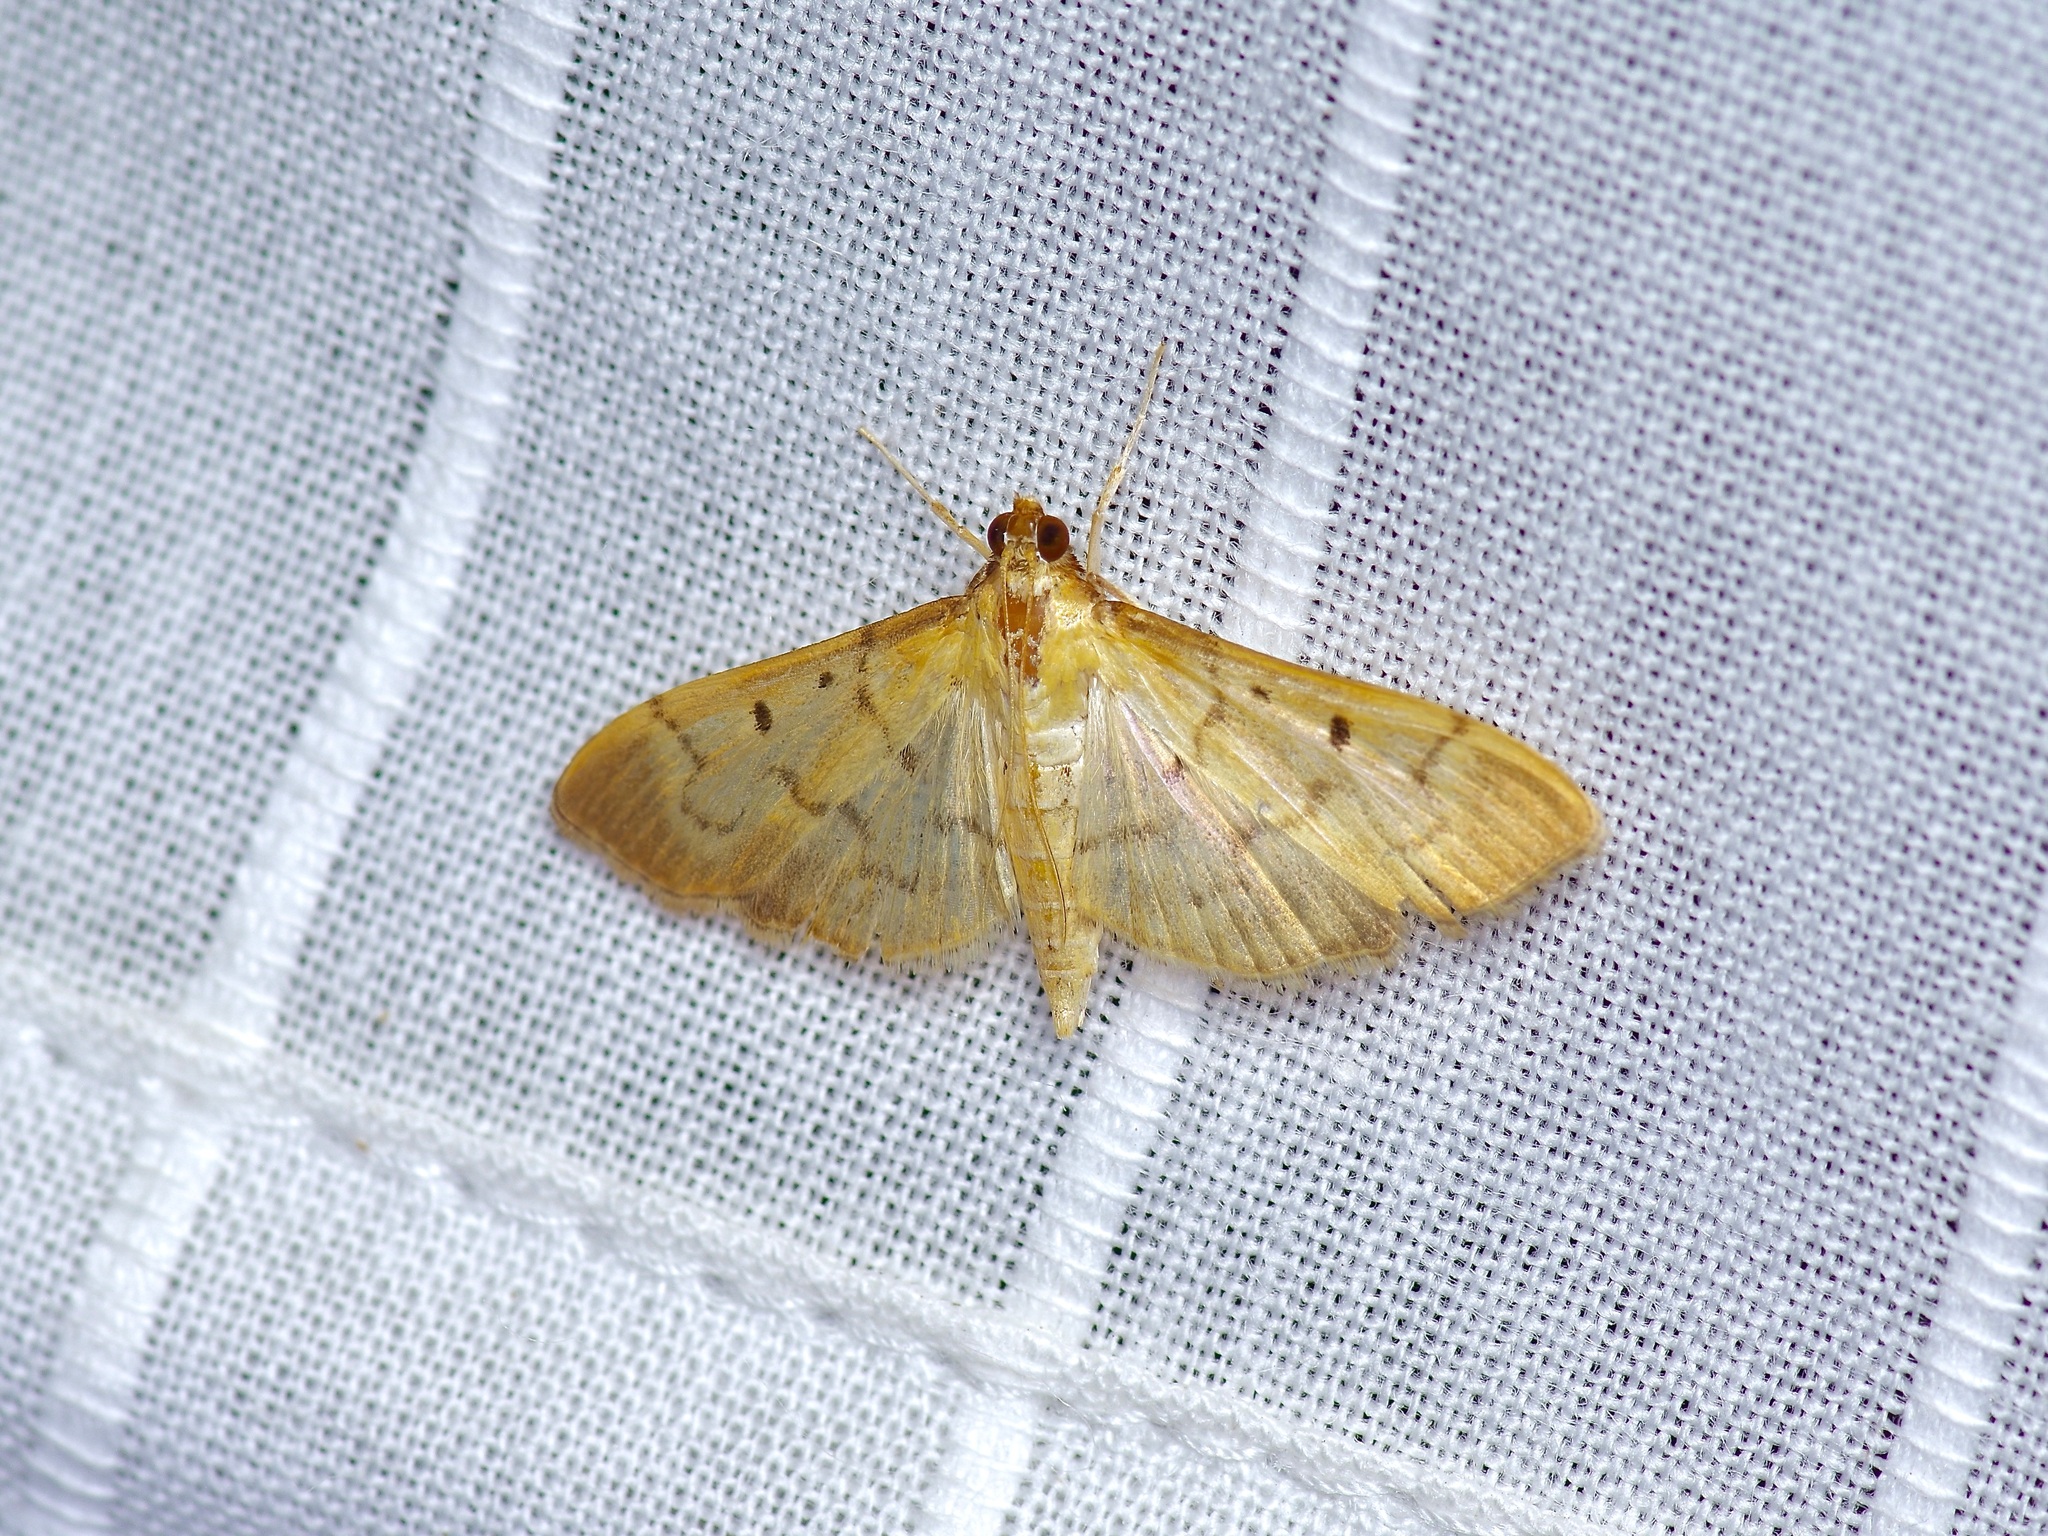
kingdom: Animalia
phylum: Arthropoda
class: Insecta
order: Lepidoptera
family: Crambidae
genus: Herpetogramma
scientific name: Herpetogramma bipunctalis
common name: Southern beet webworm
